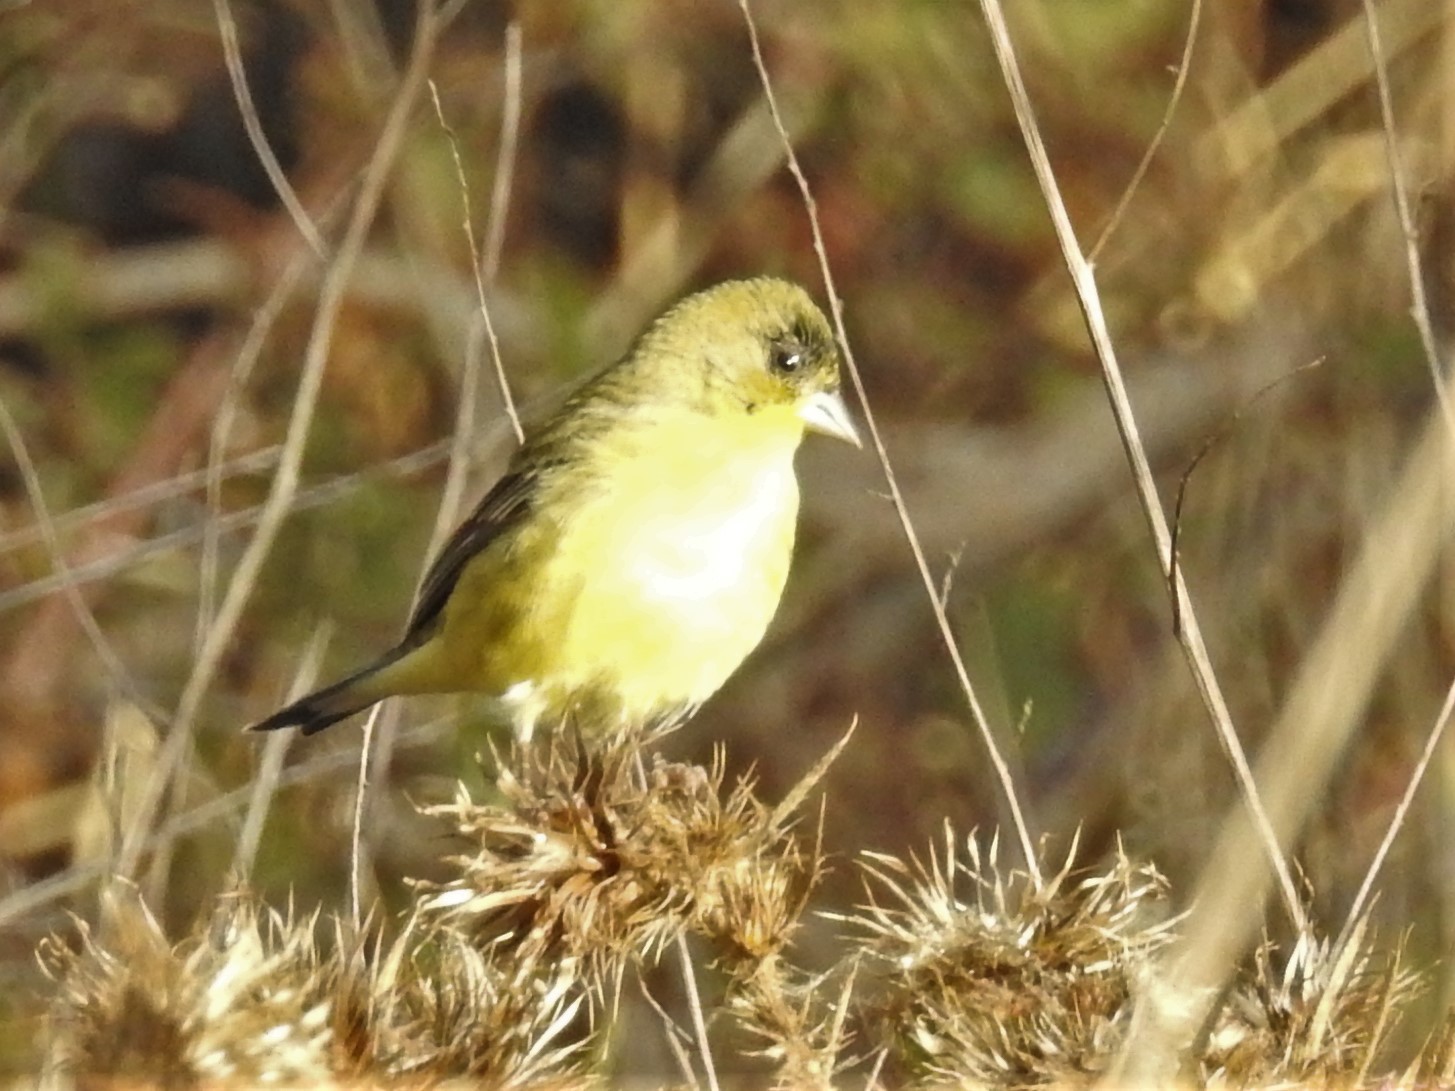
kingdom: Animalia
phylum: Chordata
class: Aves
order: Passeriformes
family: Fringillidae
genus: Spinus
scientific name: Spinus psaltria
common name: Lesser goldfinch
